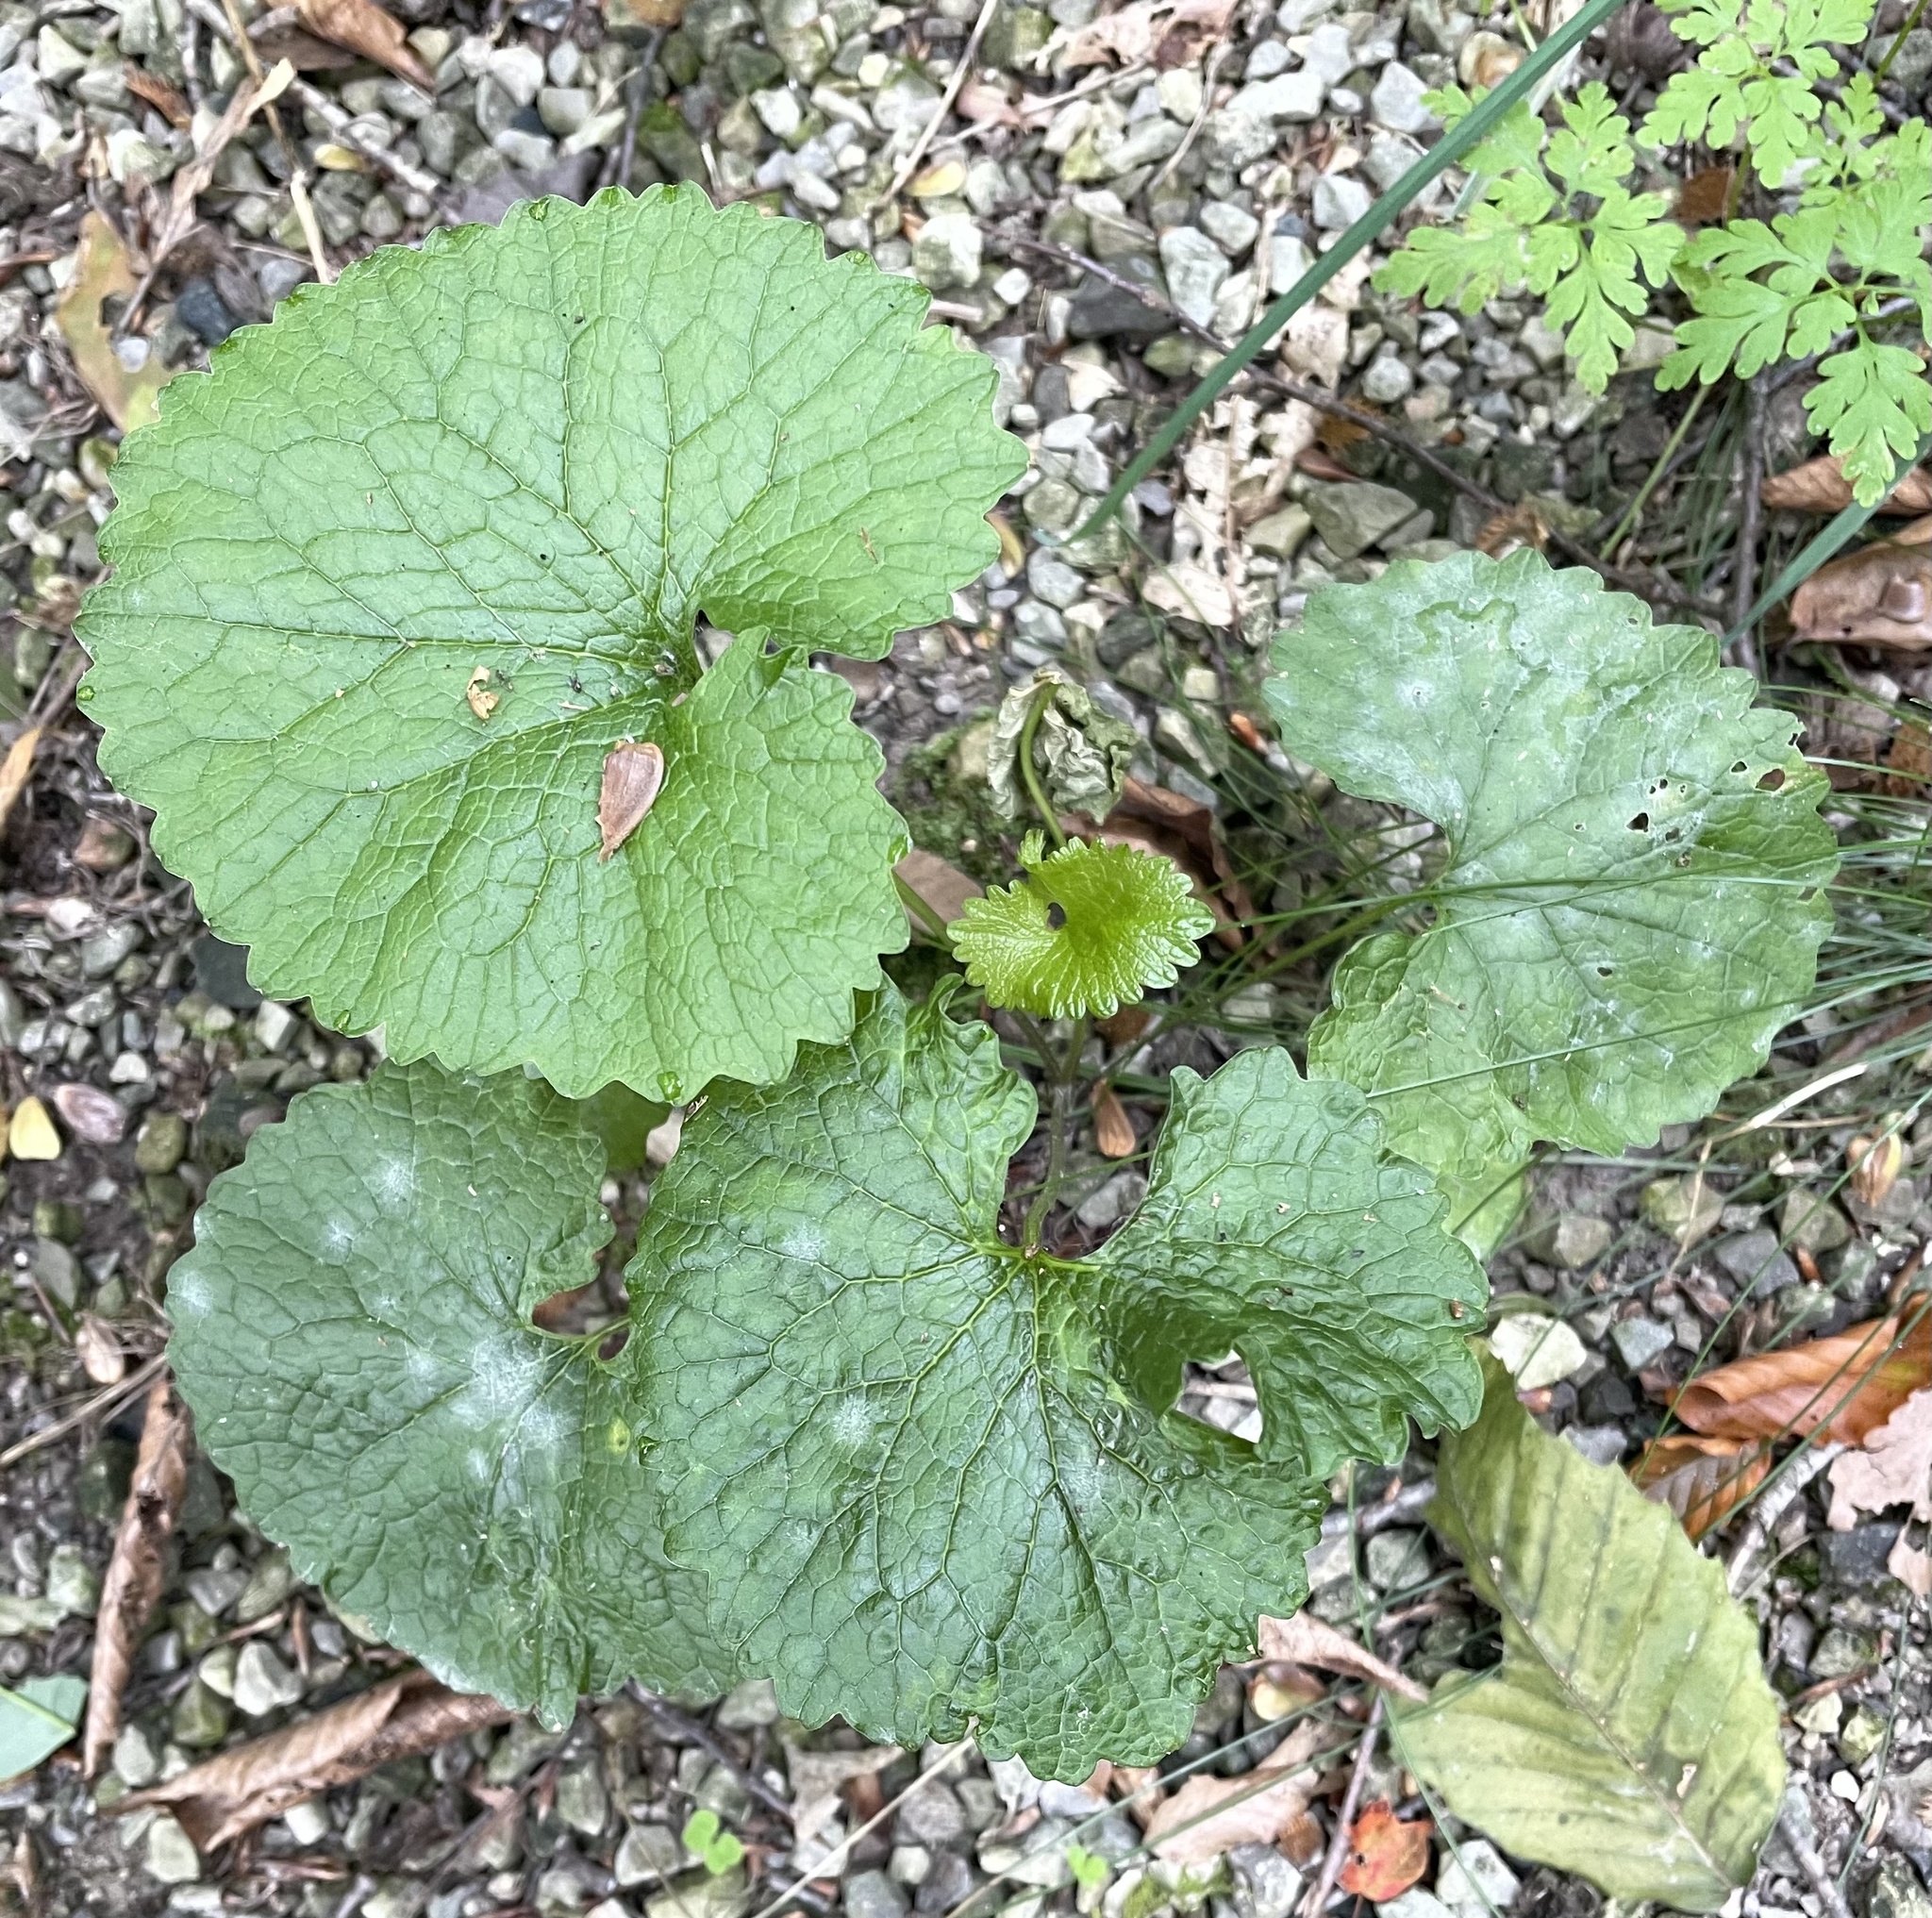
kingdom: Plantae
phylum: Tracheophyta
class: Magnoliopsida
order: Brassicales
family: Brassicaceae
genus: Alliaria
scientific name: Alliaria petiolata
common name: Garlic mustard
